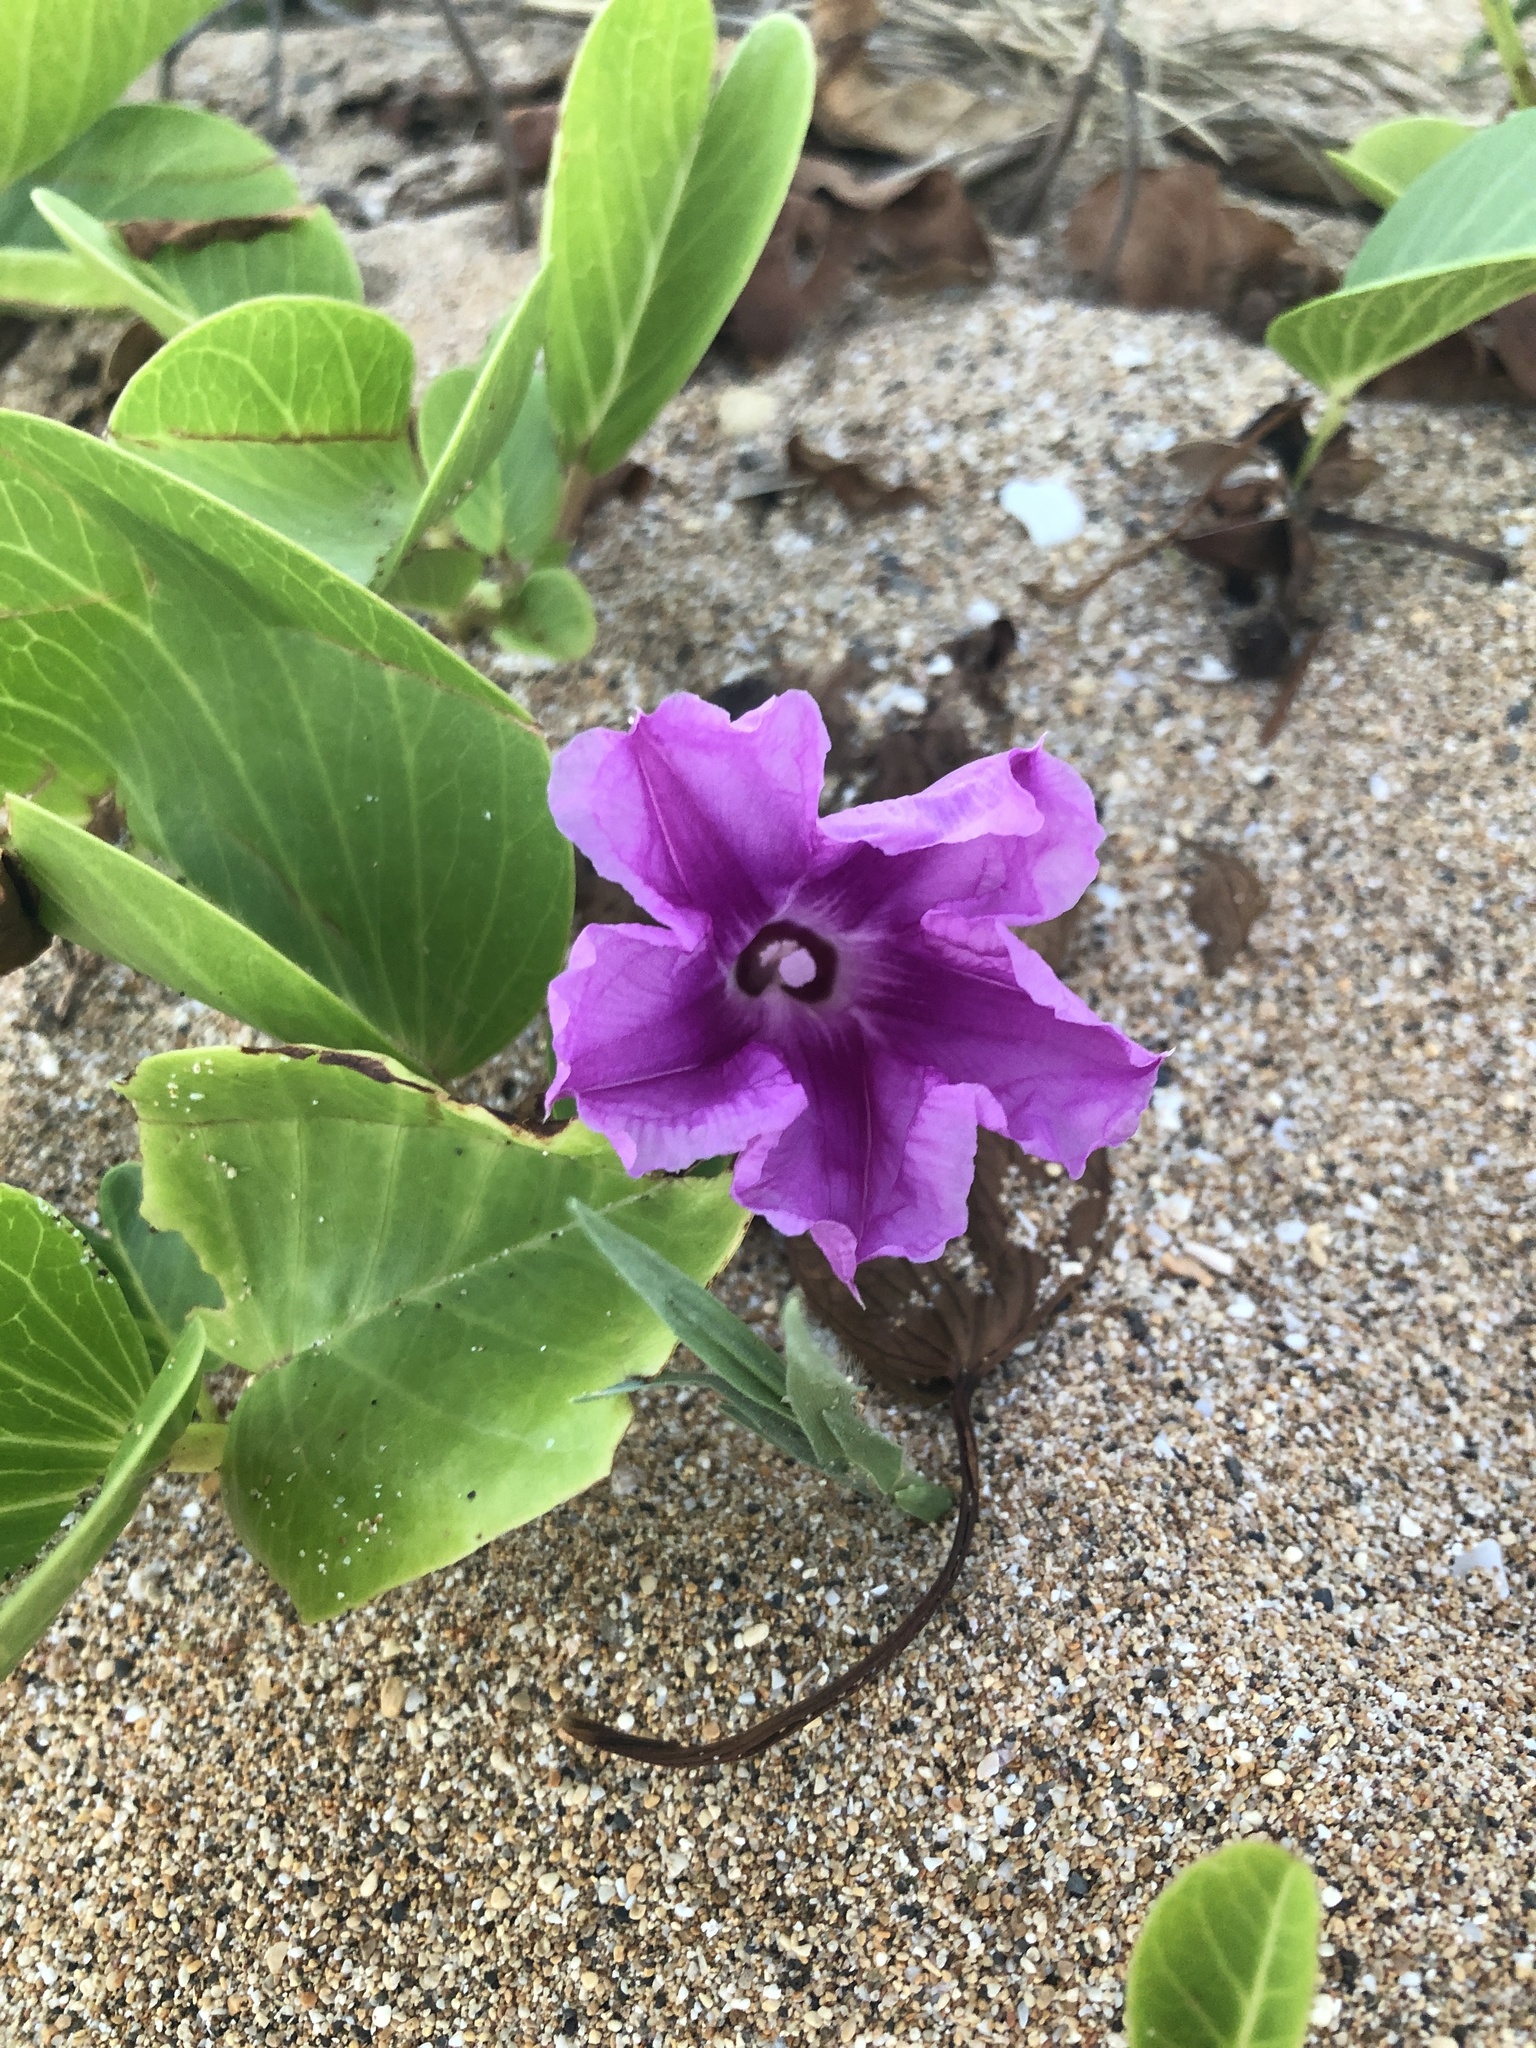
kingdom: Plantae
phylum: Tracheophyta
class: Magnoliopsida
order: Solanales
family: Convolvulaceae
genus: Ipomoea
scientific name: Ipomoea pes-caprae
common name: Beach morning glory
